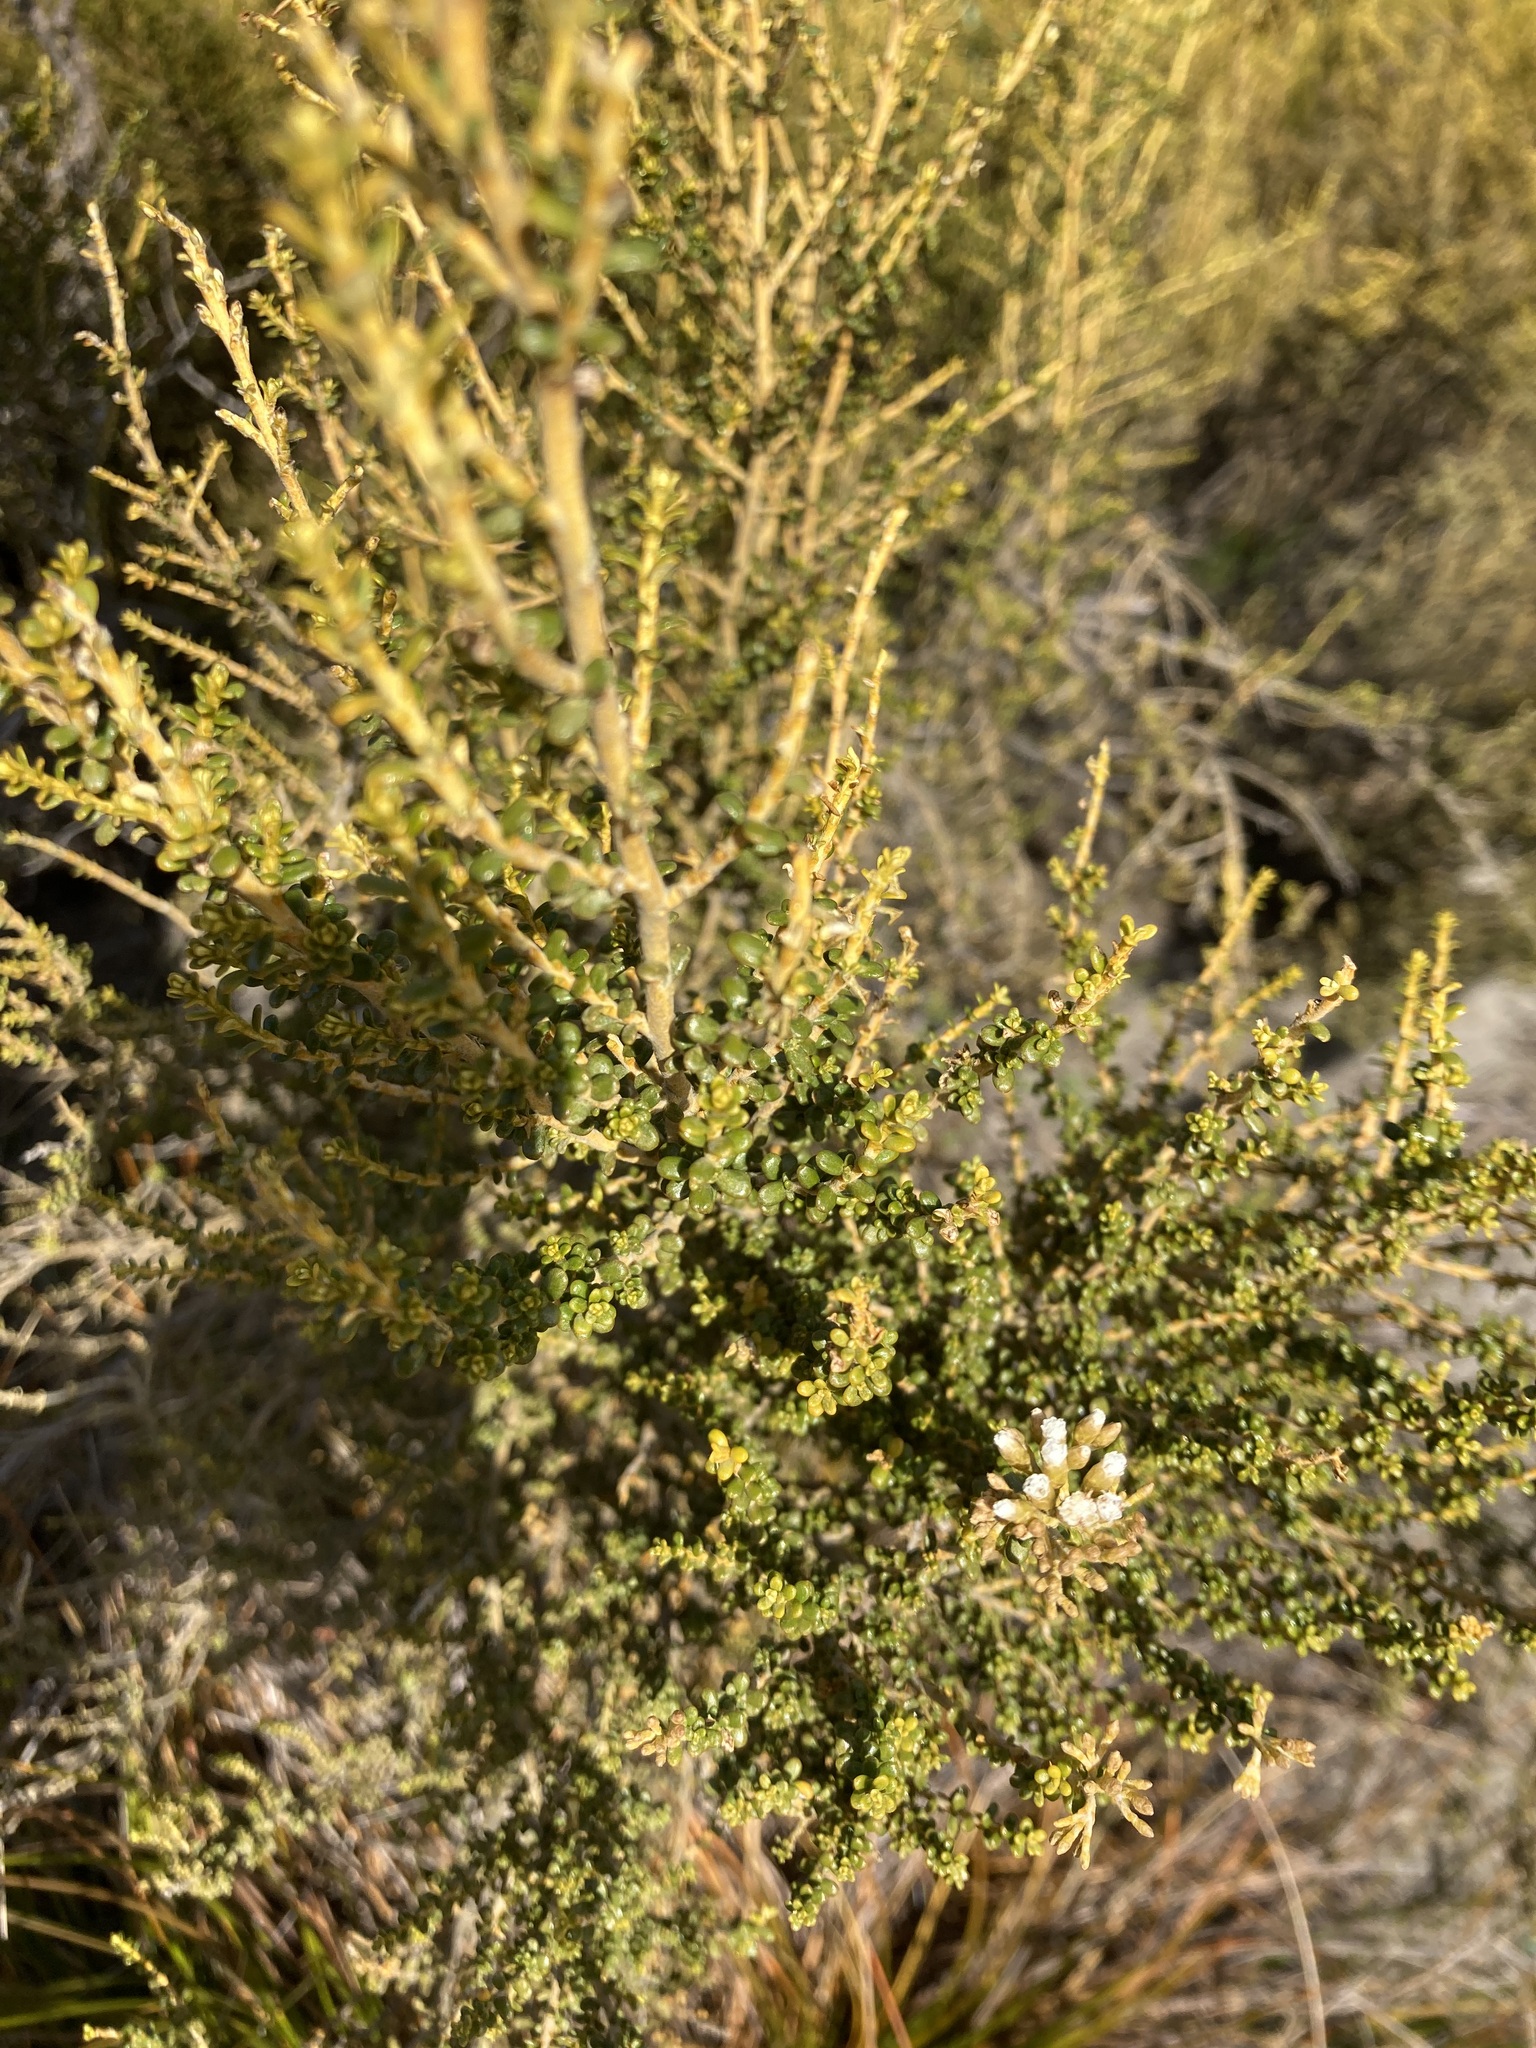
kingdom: Plantae
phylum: Tracheophyta
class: Magnoliopsida
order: Asterales
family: Asteraceae
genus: Ozothamnus
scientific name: Ozothamnus leptophyllus
